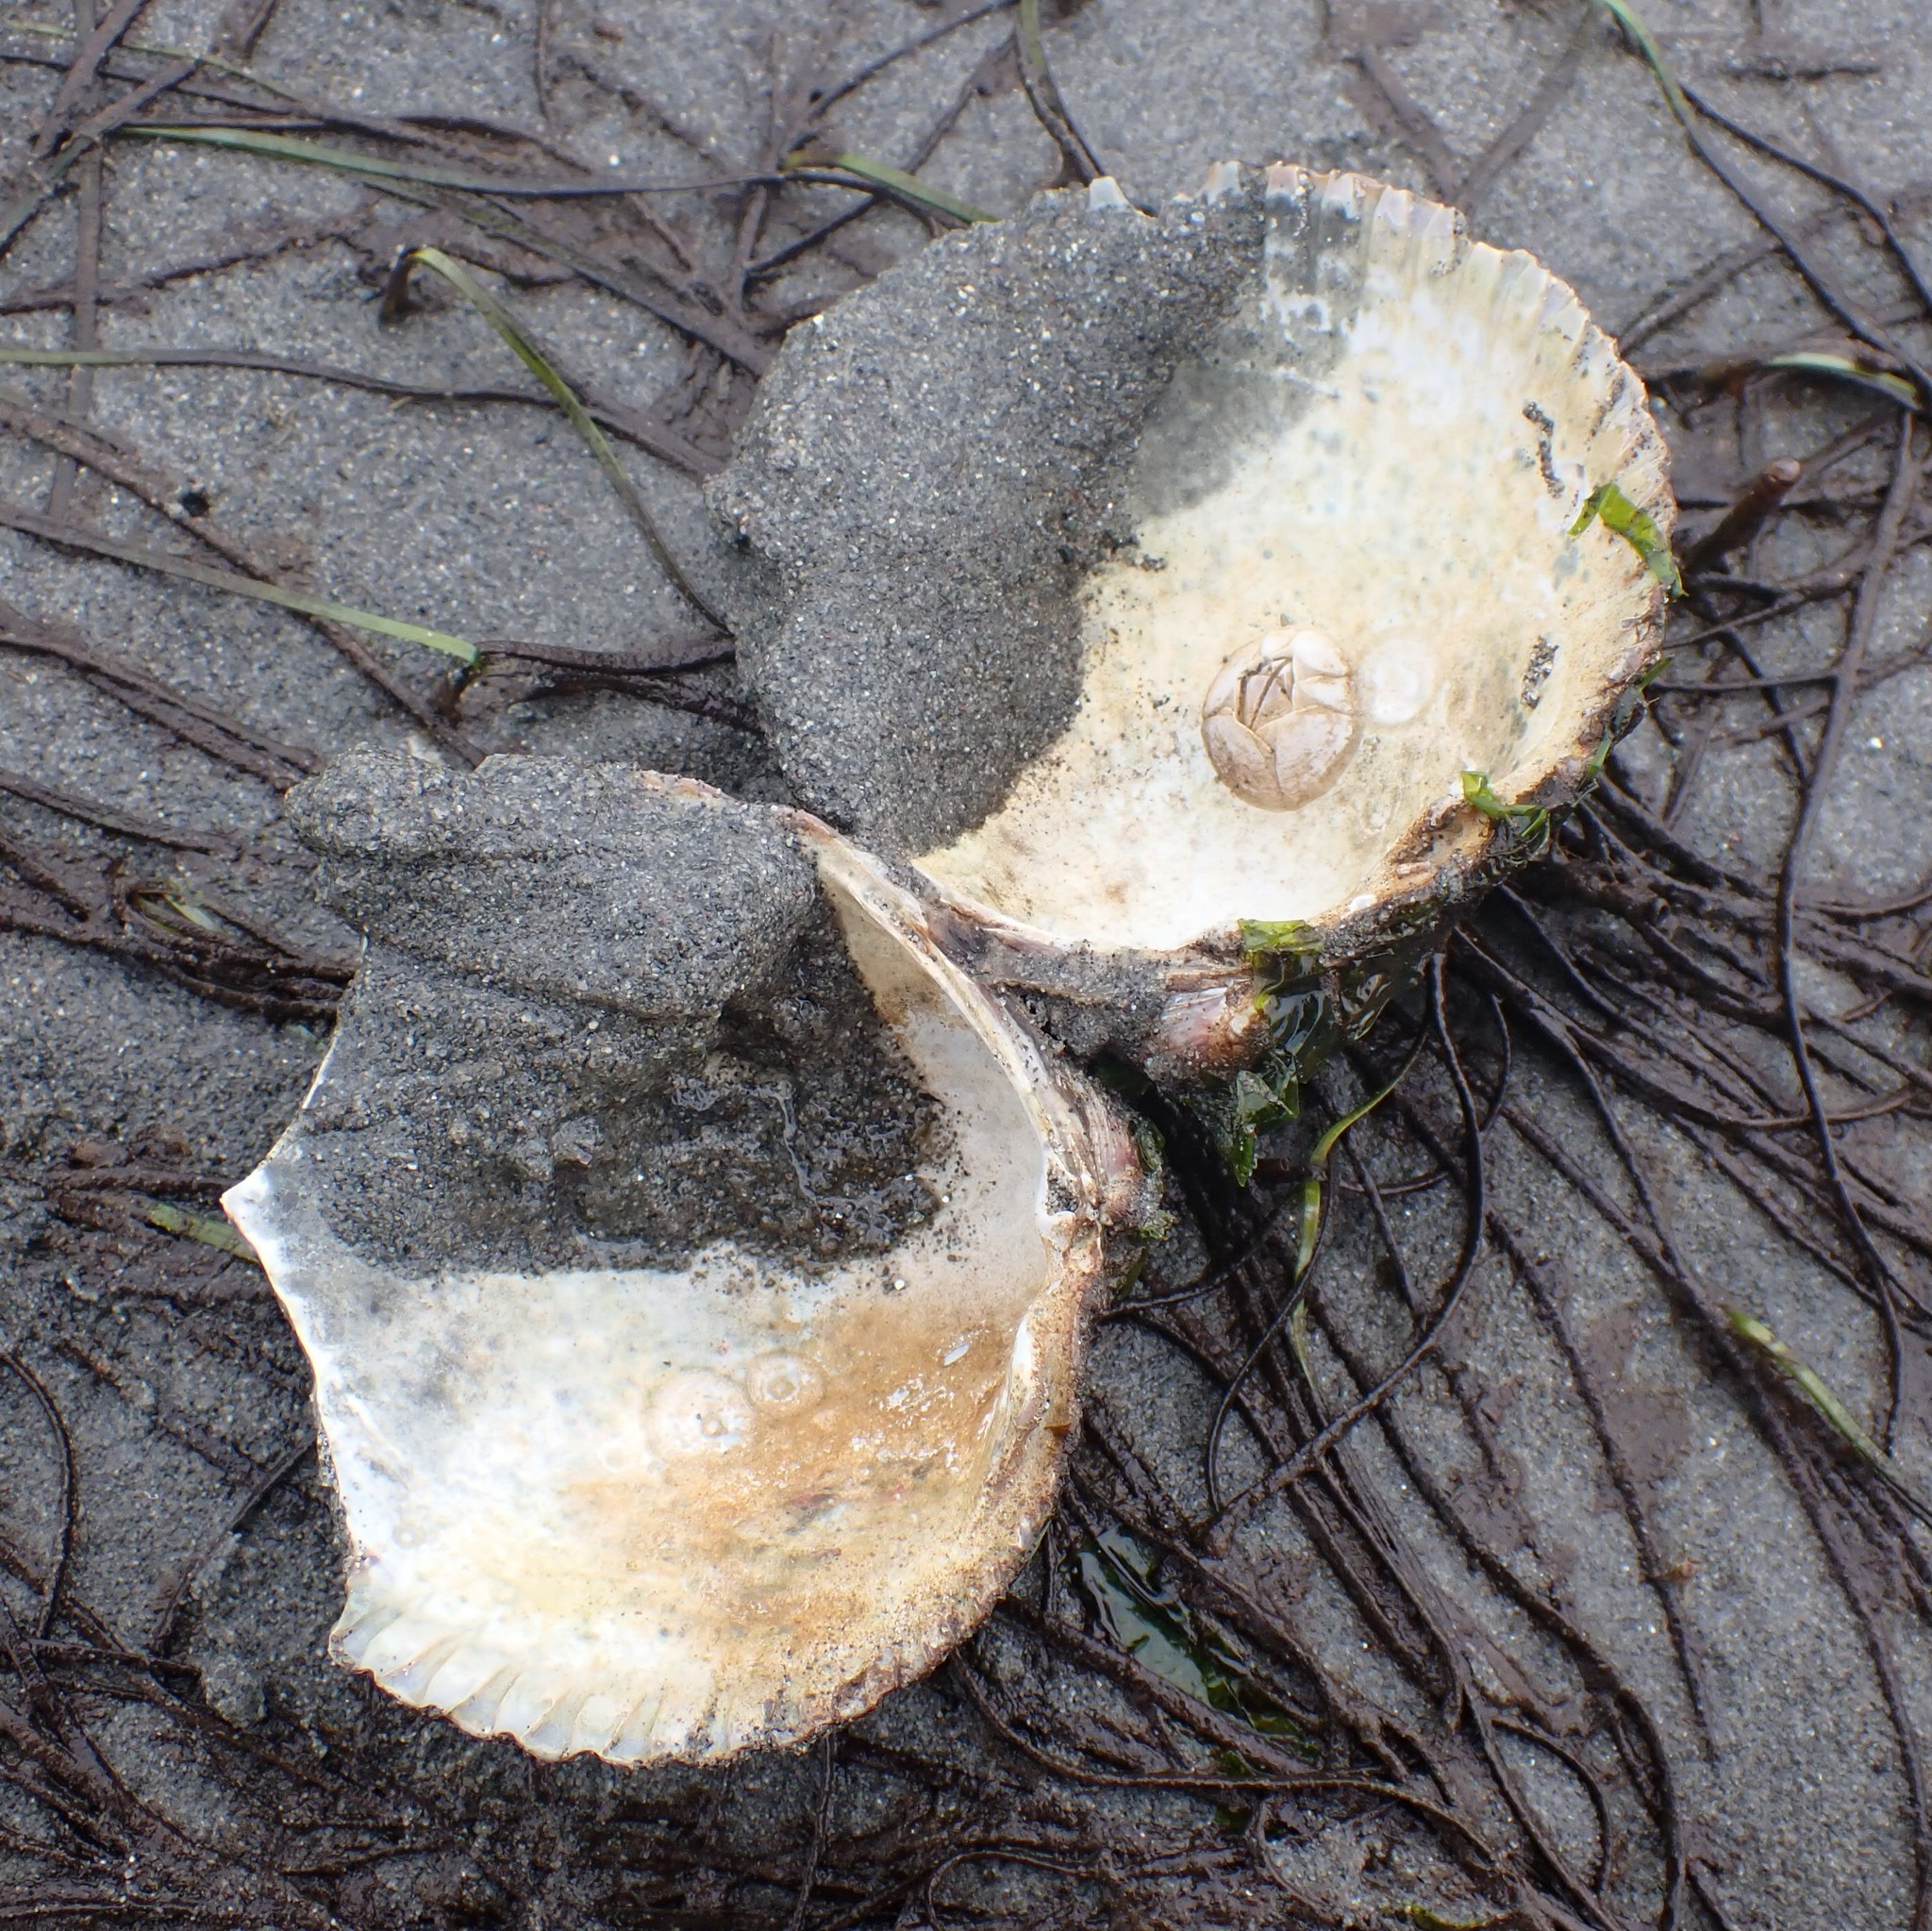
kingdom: Animalia
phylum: Mollusca
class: Bivalvia
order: Cardiida
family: Cardiidae
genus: Clinocardium
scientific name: Clinocardium nuttallii
